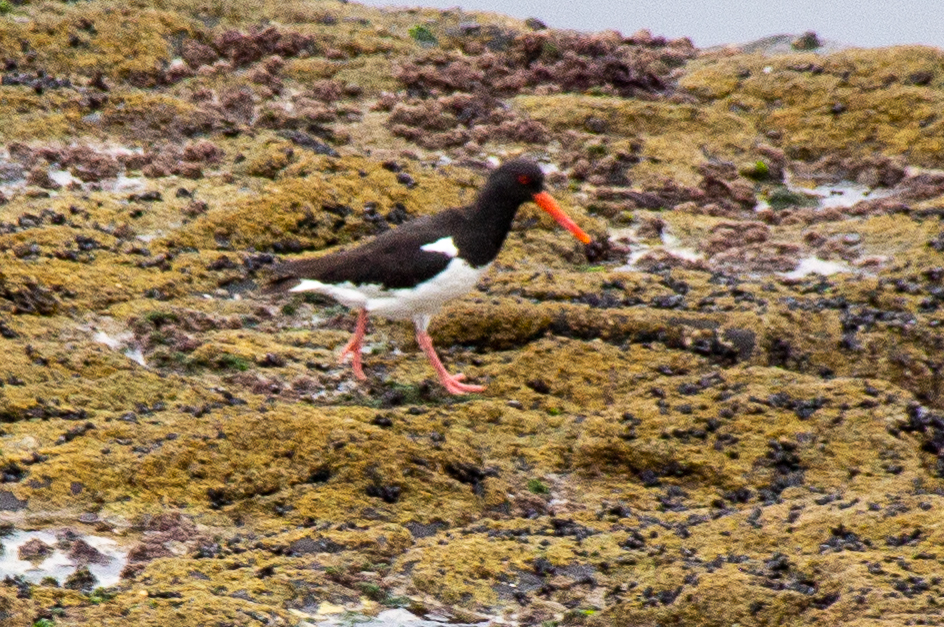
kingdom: Animalia
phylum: Chordata
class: Aves
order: Charadriiformes
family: Haematopodidae
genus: Haematopus
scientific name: Haematopus ostralegus
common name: Eurasian oystercatcher
